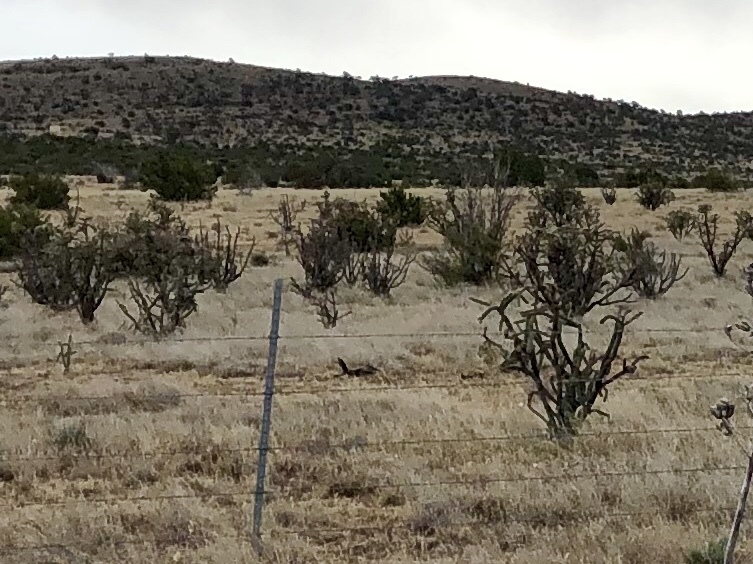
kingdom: Plantae
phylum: Tracheophyta
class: Magnoliopsida
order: Caryophyllales
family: Cactaceae
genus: Cylindropuntia
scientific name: Cylindropuntia imbricata
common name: Candelabrum cactus
